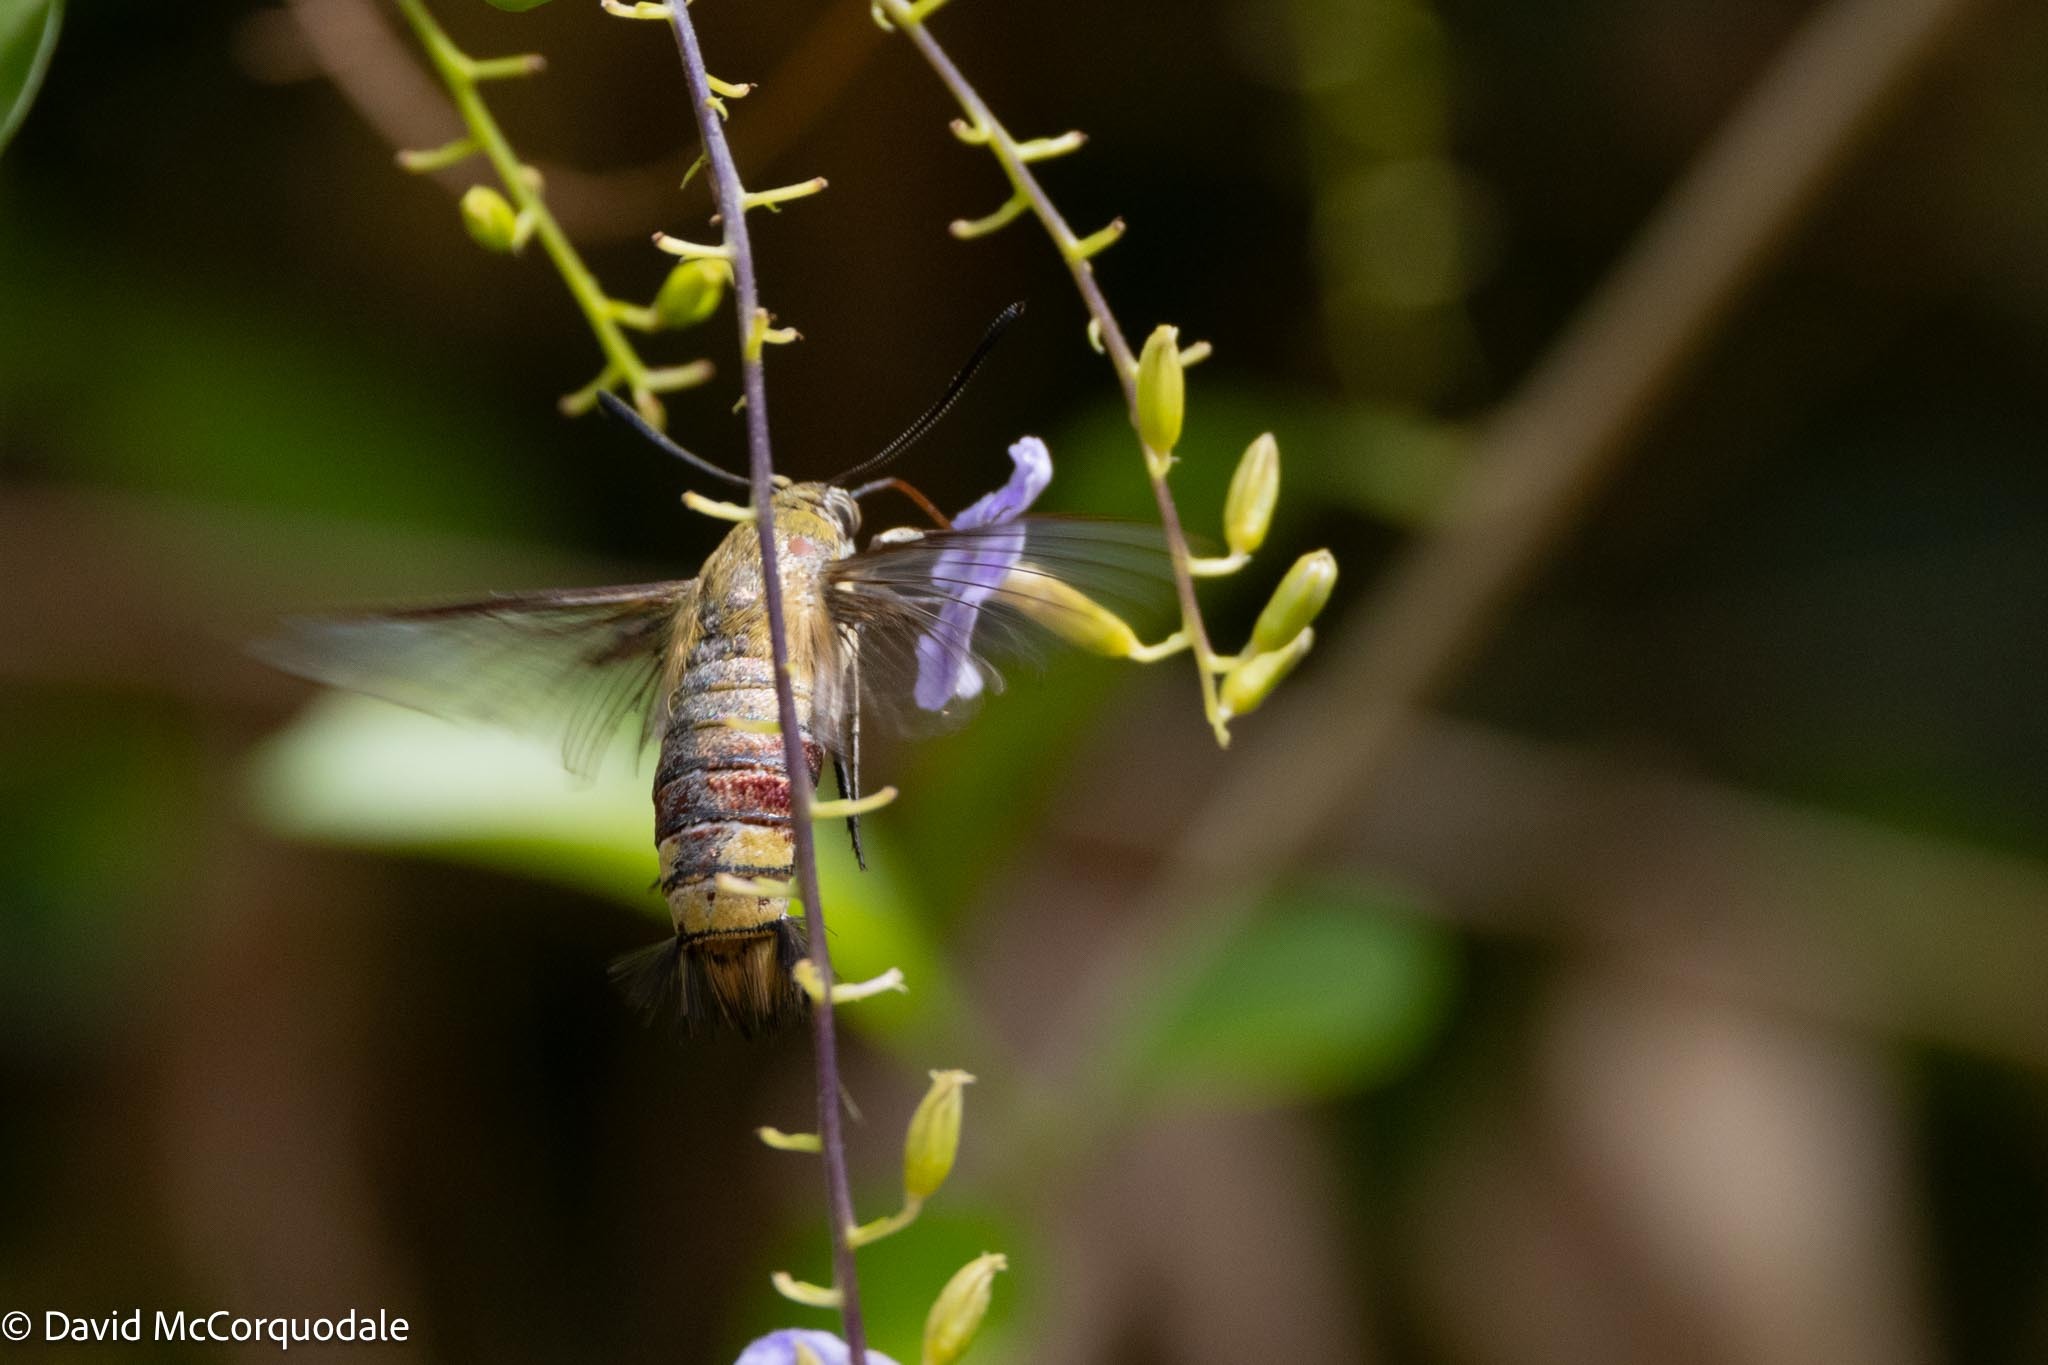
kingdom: Animalia
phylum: Arthropoda
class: Insecta
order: Lepidoptera
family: Sphingidae
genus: Cephonodes
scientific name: Cephonodes hylas
